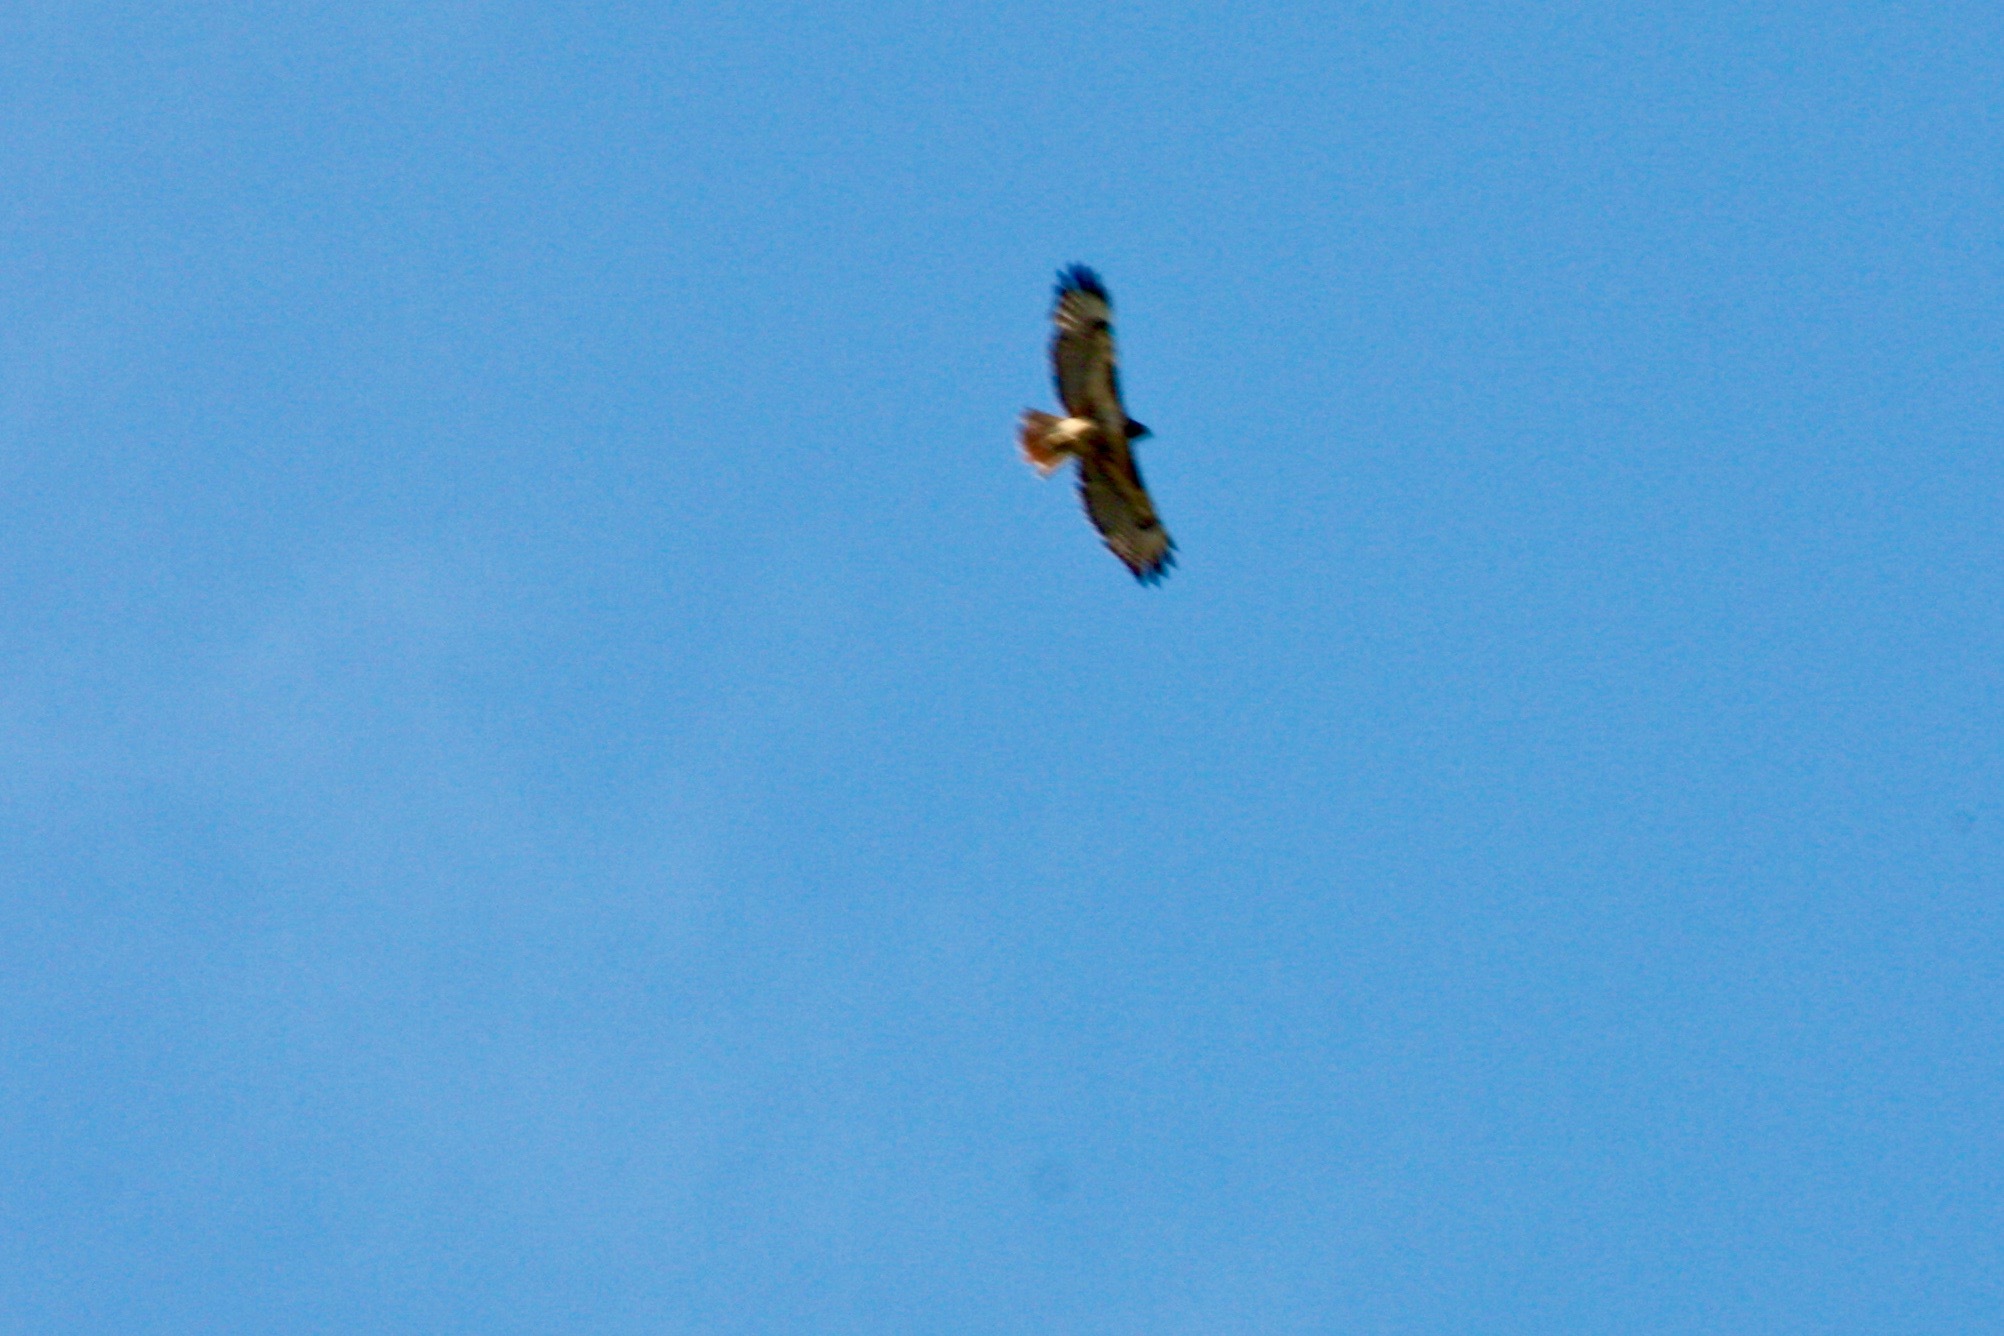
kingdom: Animalia
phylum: Chordata
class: Aves
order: Accipitriformes
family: Accipitridae
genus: Buteo
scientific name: Buteo jamaicensis
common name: Red-tailed hawk
